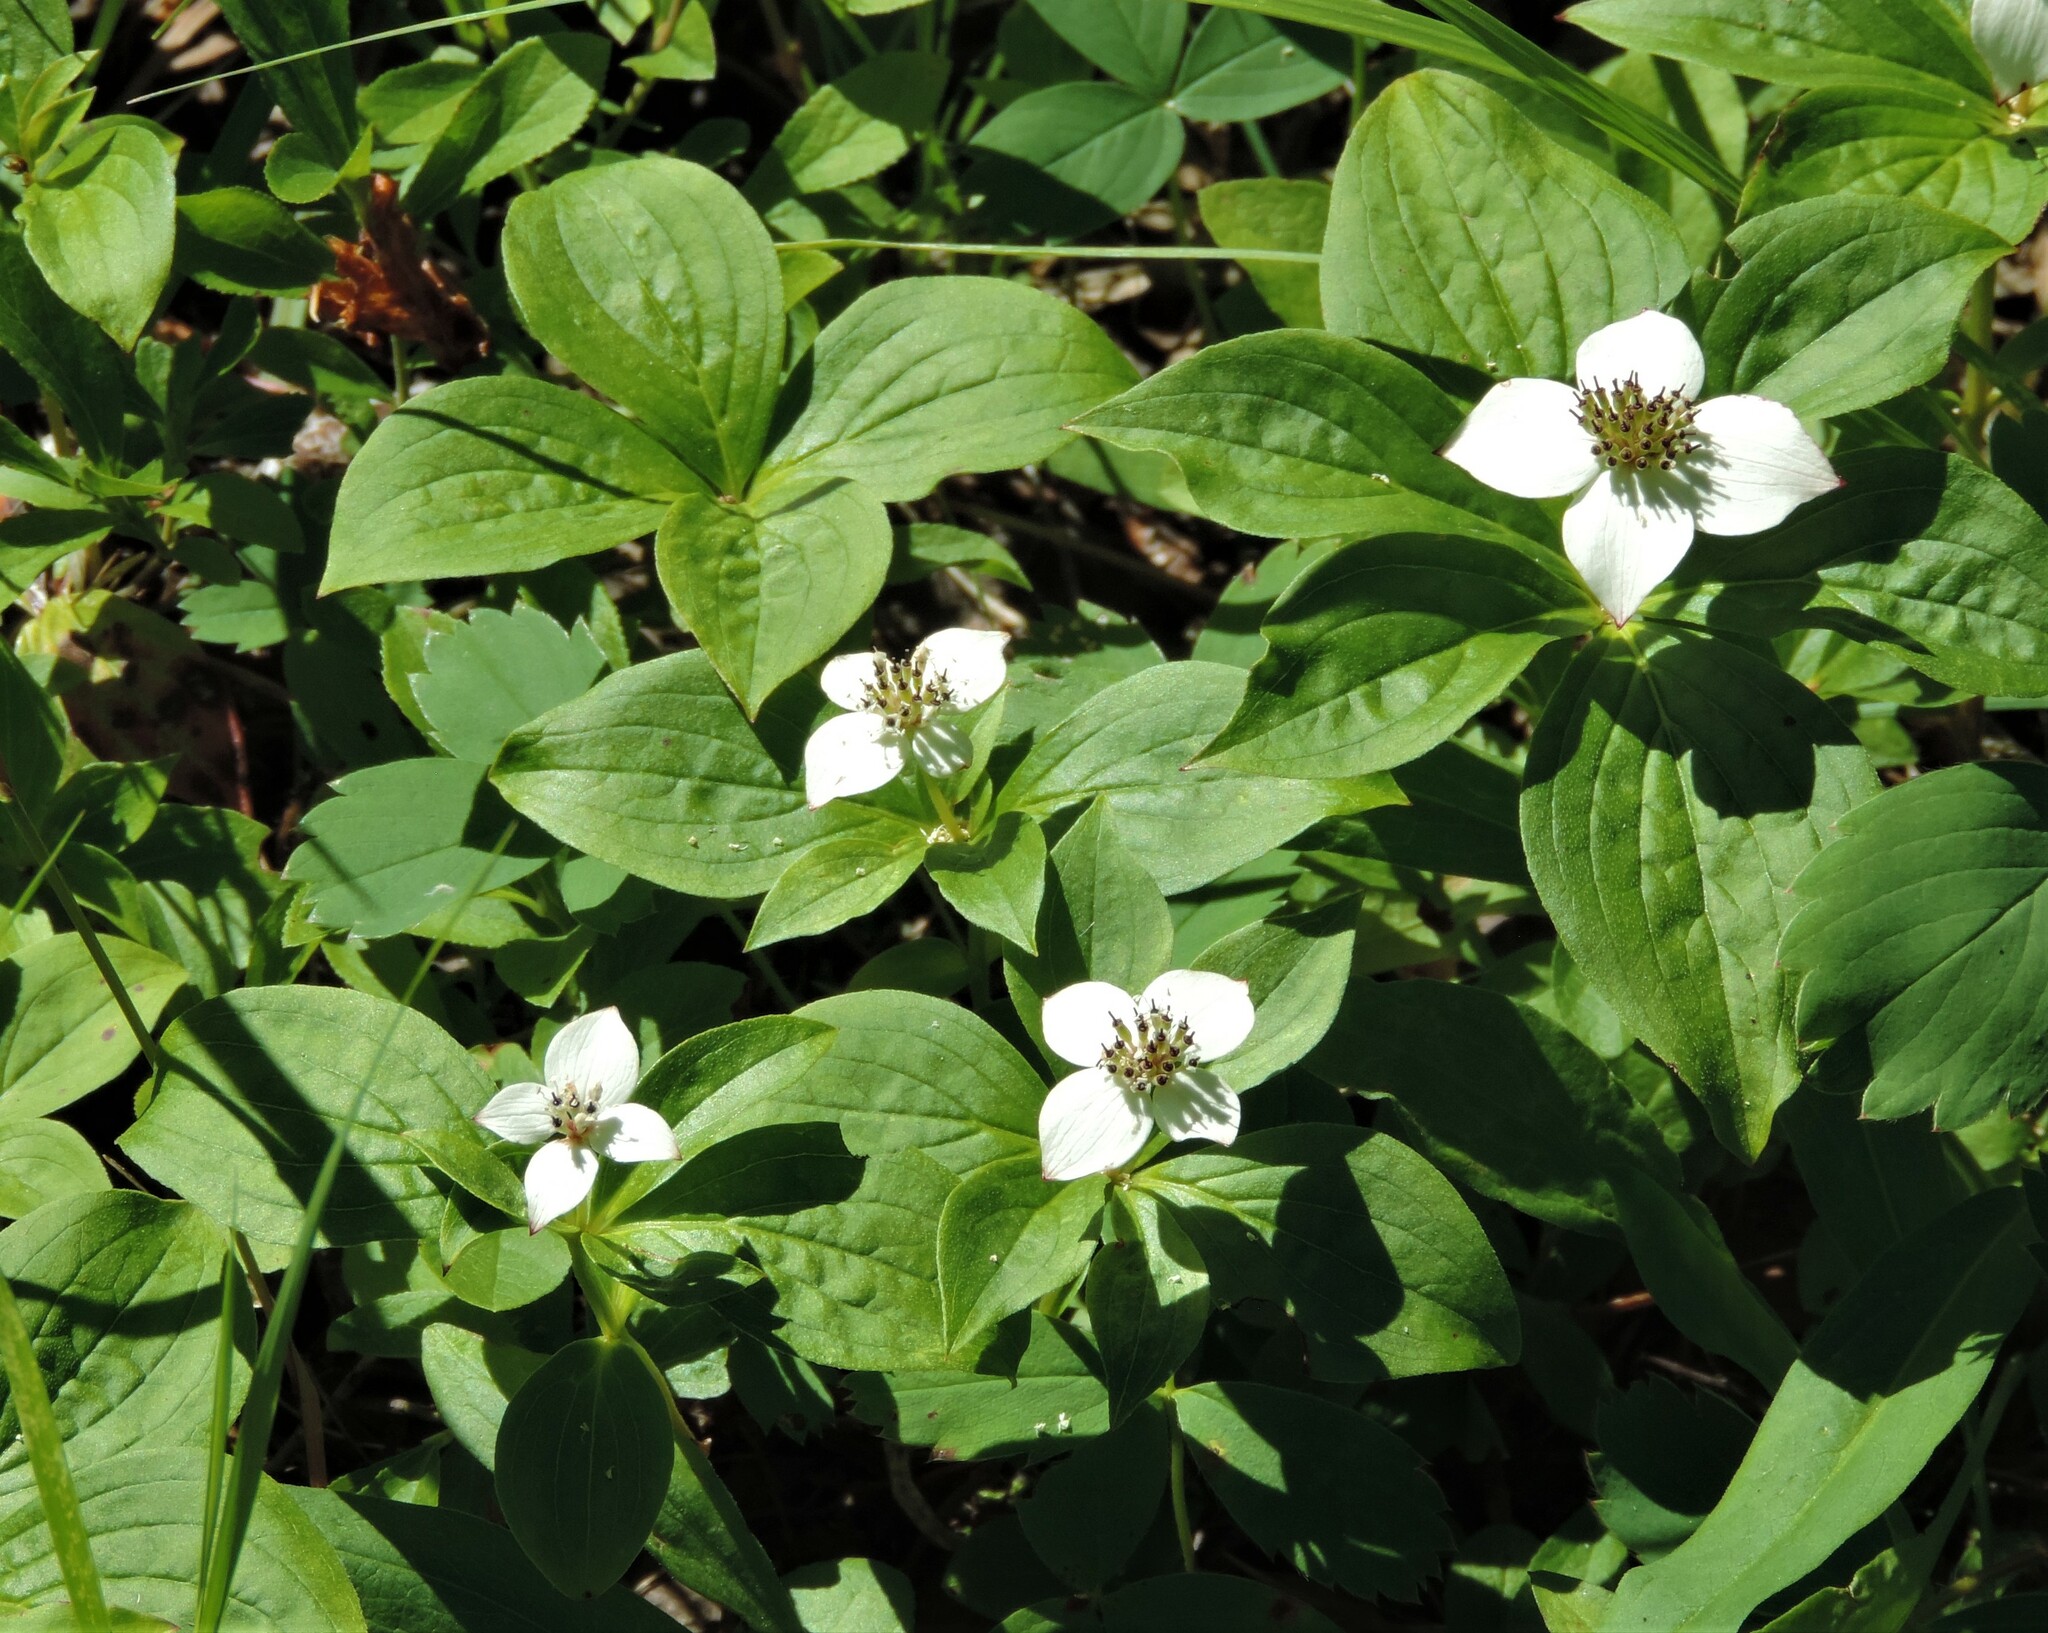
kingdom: Plantae
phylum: Tracheophyta
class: Magnoliopsida
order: Cornales
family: Cornaceae
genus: Cornus
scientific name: Cornus canadensis
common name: Creeping dogwood
